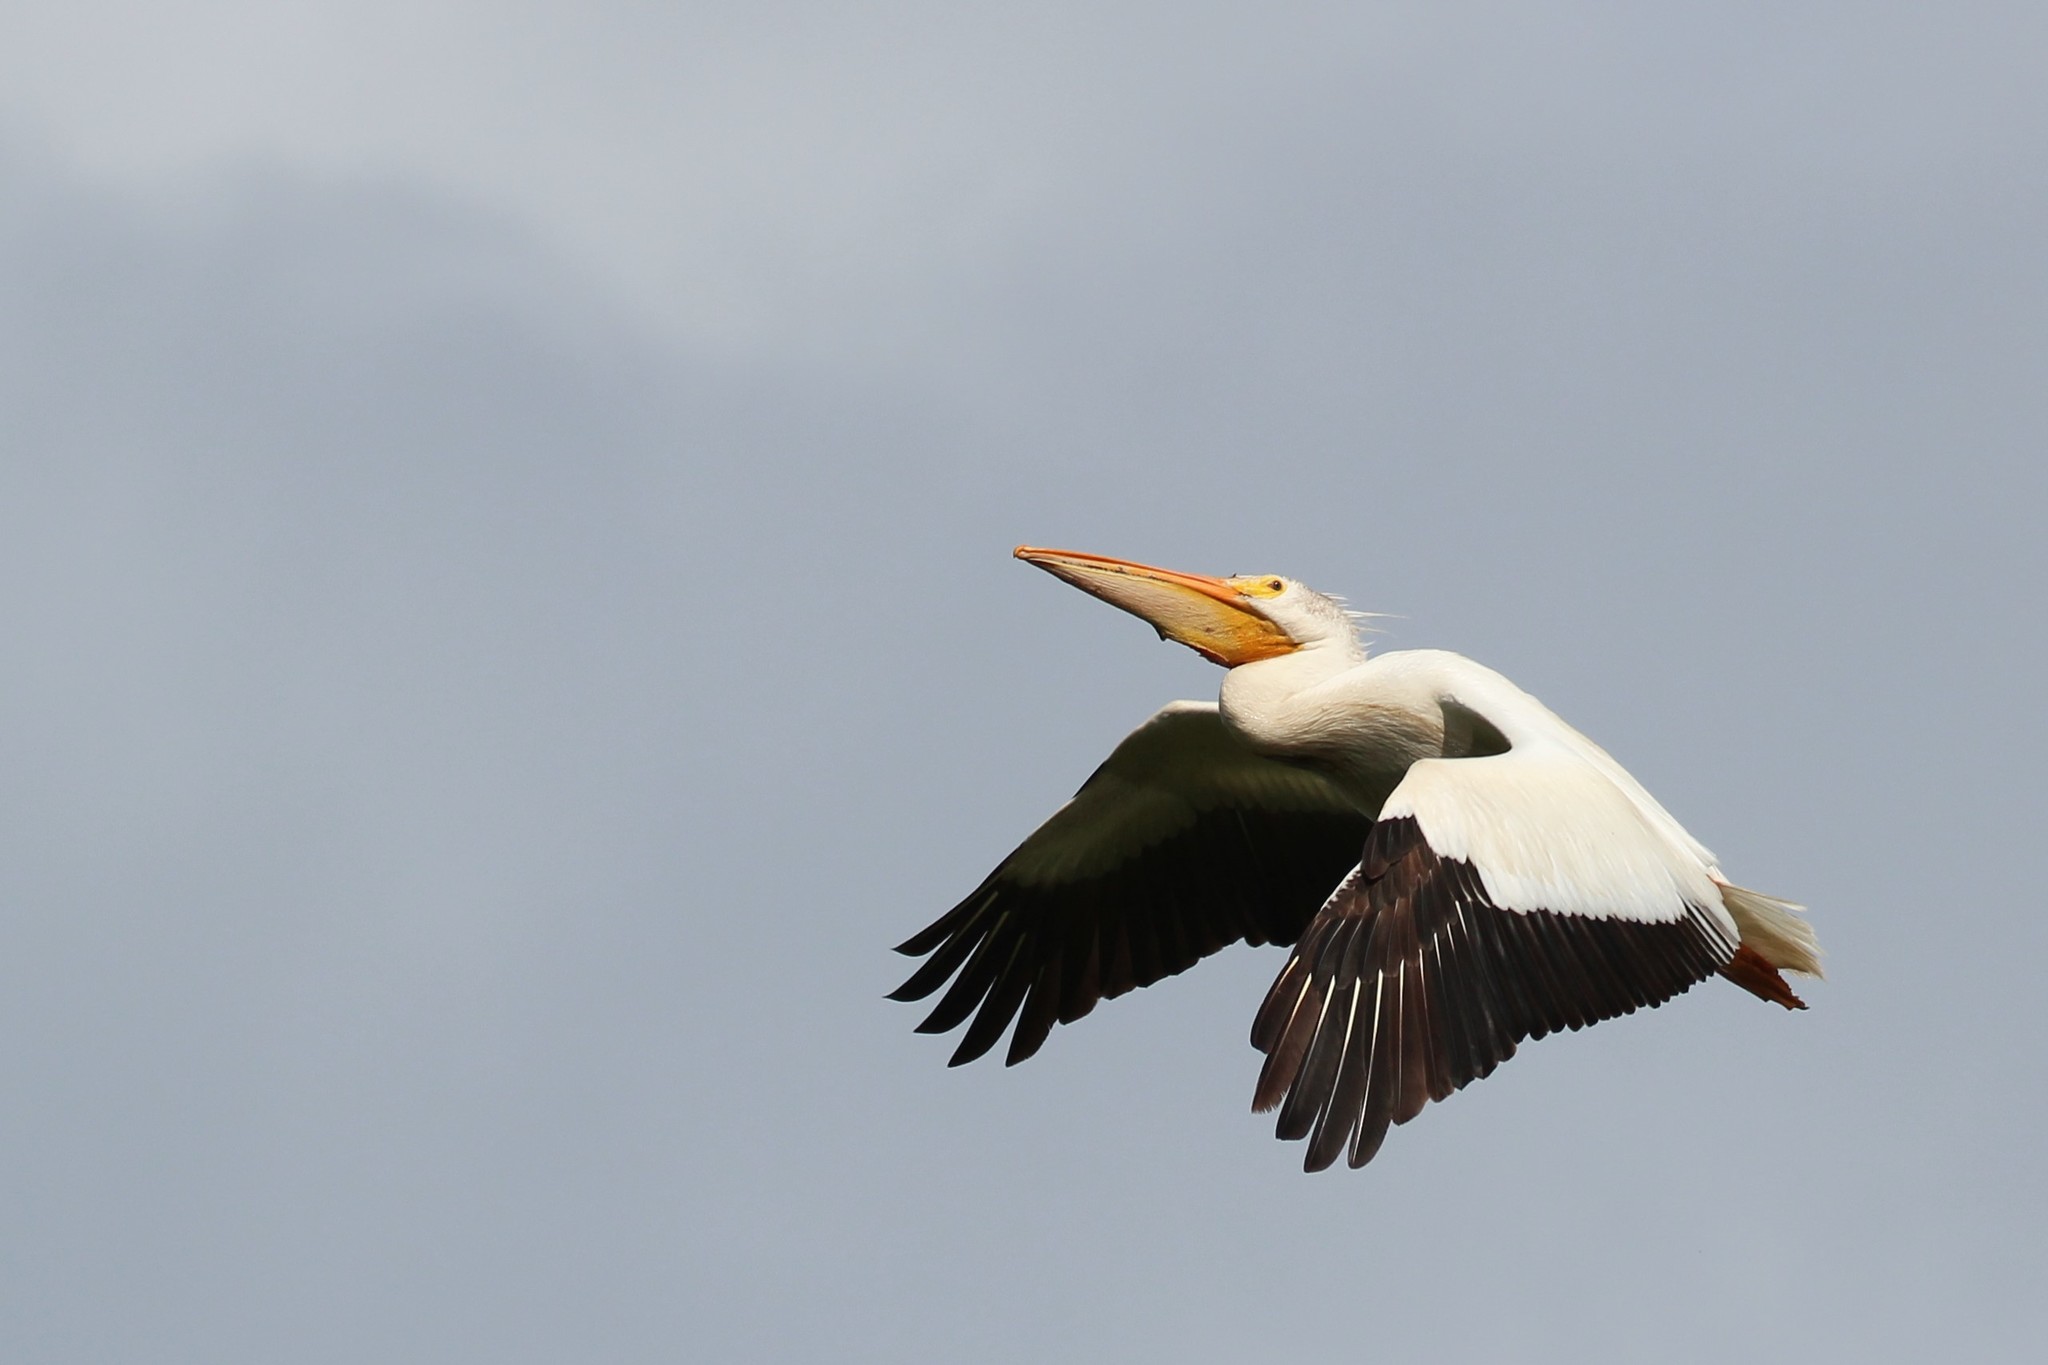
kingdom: Animalia
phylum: Chordata
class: Aves
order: Pelecaniformes
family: Pelecanidae
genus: Pelecanus
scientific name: Pelecanus erythrorhynchos
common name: American white pelican
